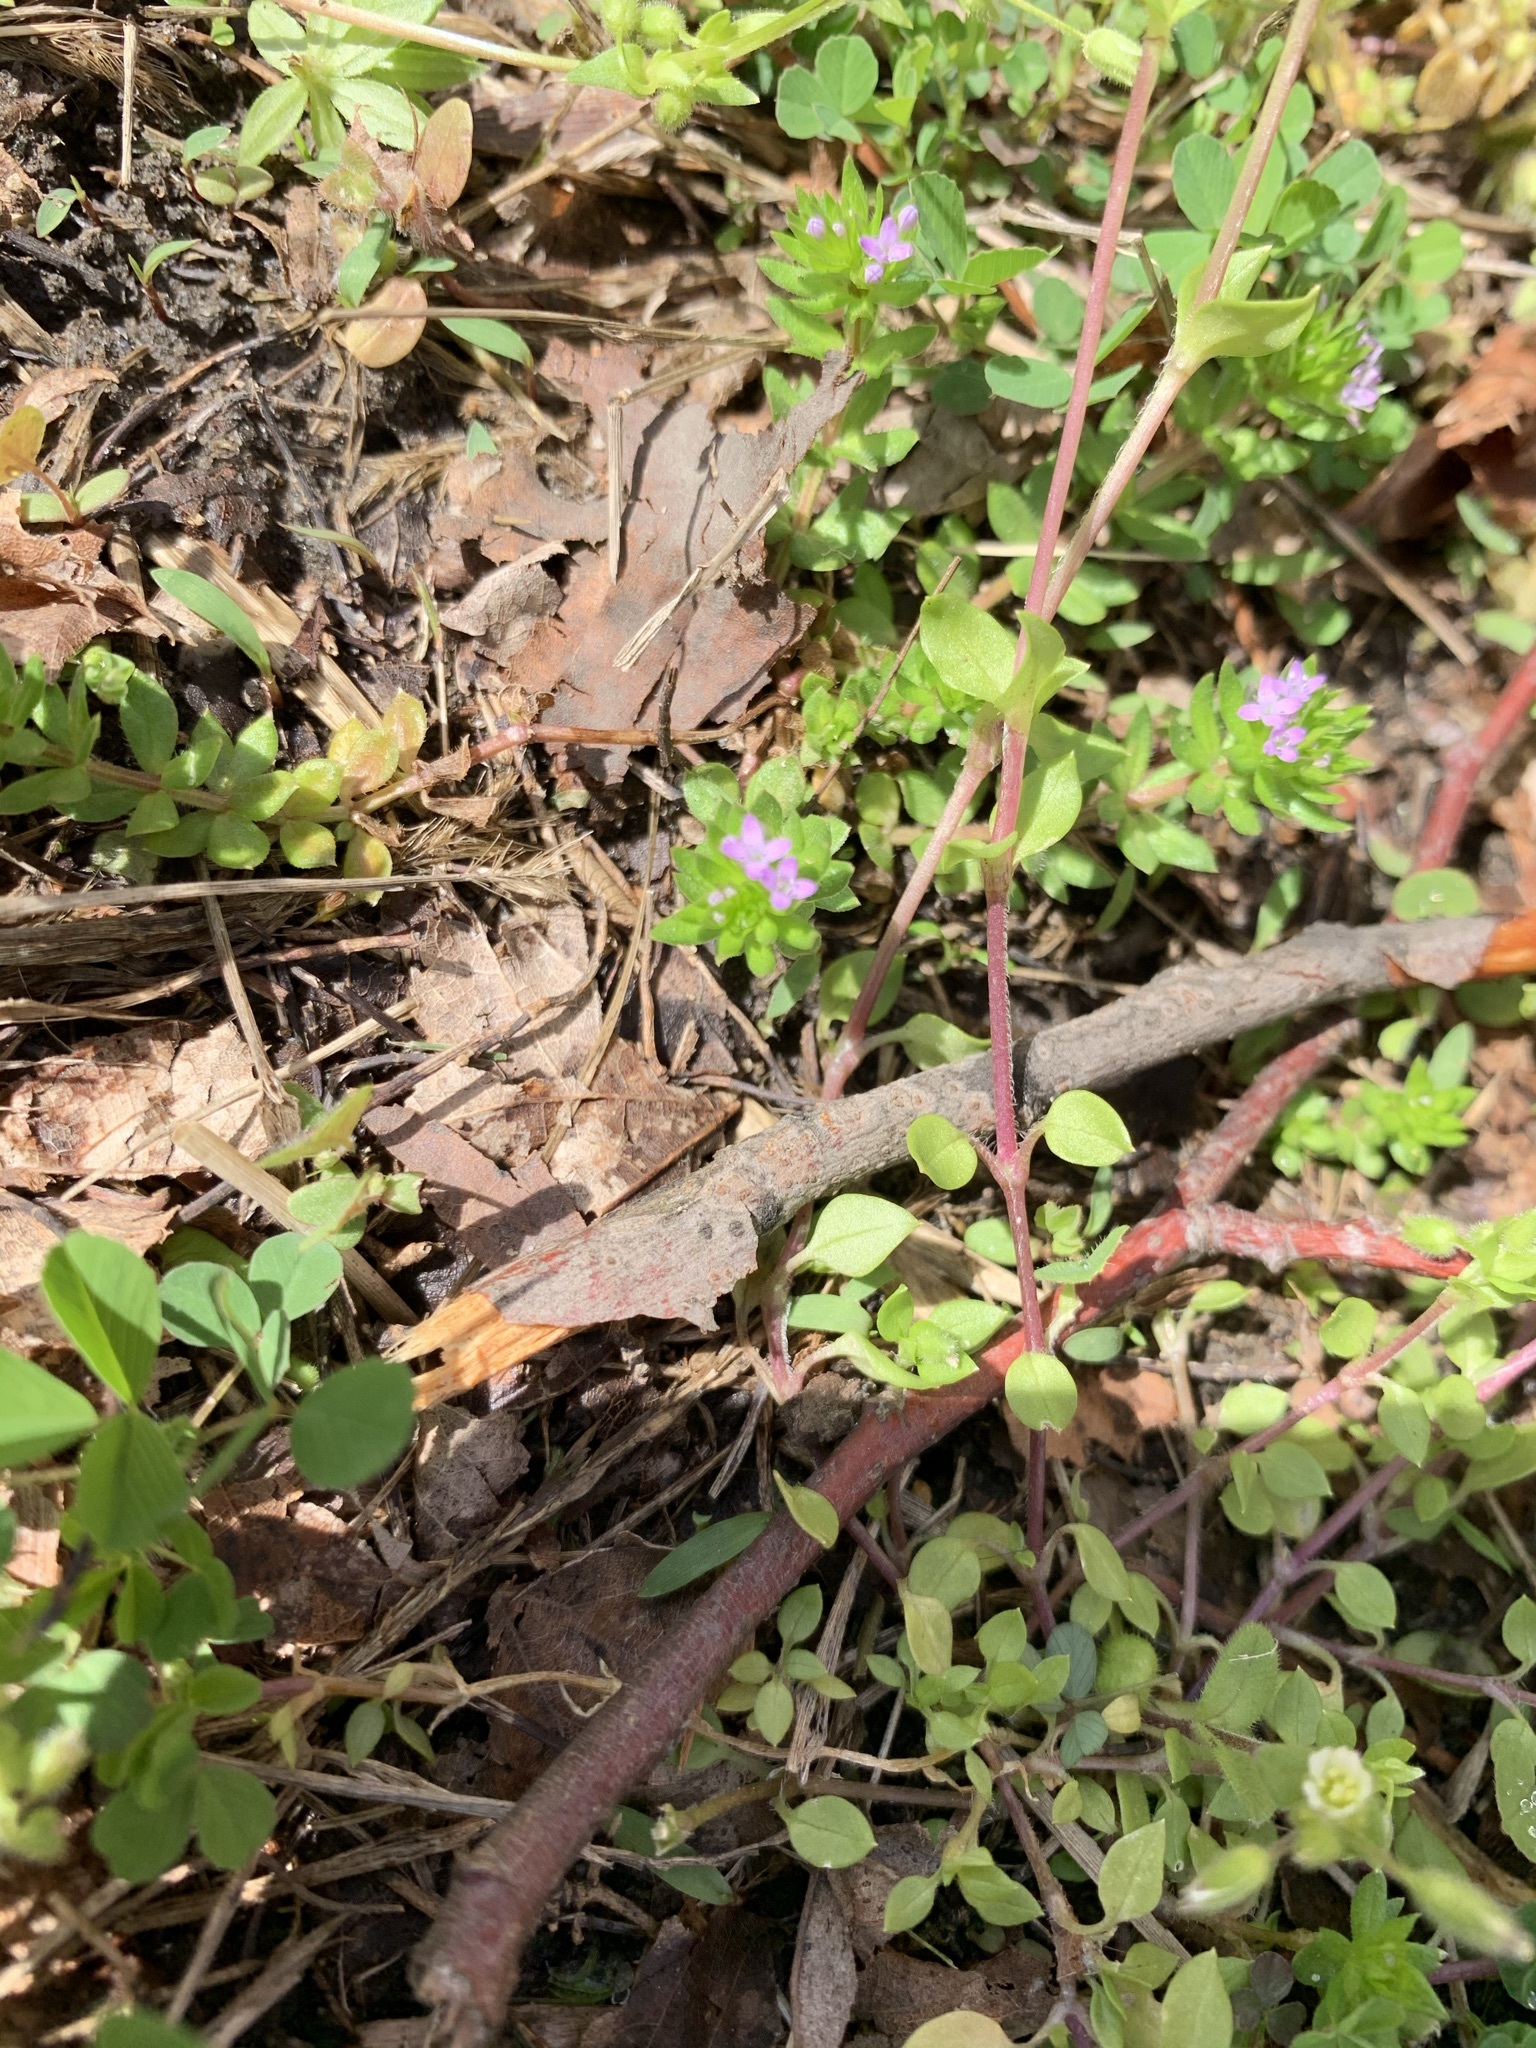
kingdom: Plantae
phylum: Tracheophyta
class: Magnoliopsida
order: Gentianales
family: Rubiaceae
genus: Sherardia
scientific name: Sherardia arvensis
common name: Field madder
